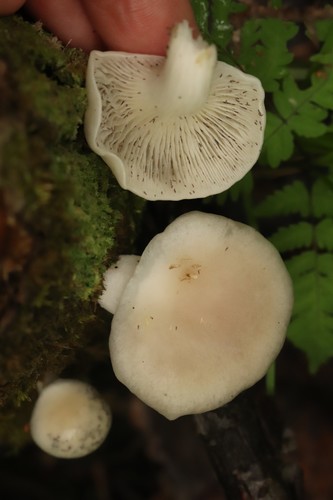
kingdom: Fungi
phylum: Basidiomycota
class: Agaricomycetes
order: Agaricales
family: Pleurotaceae
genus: Pleurotus
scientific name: Pleurotus pulmonarius
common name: Pale oyster
